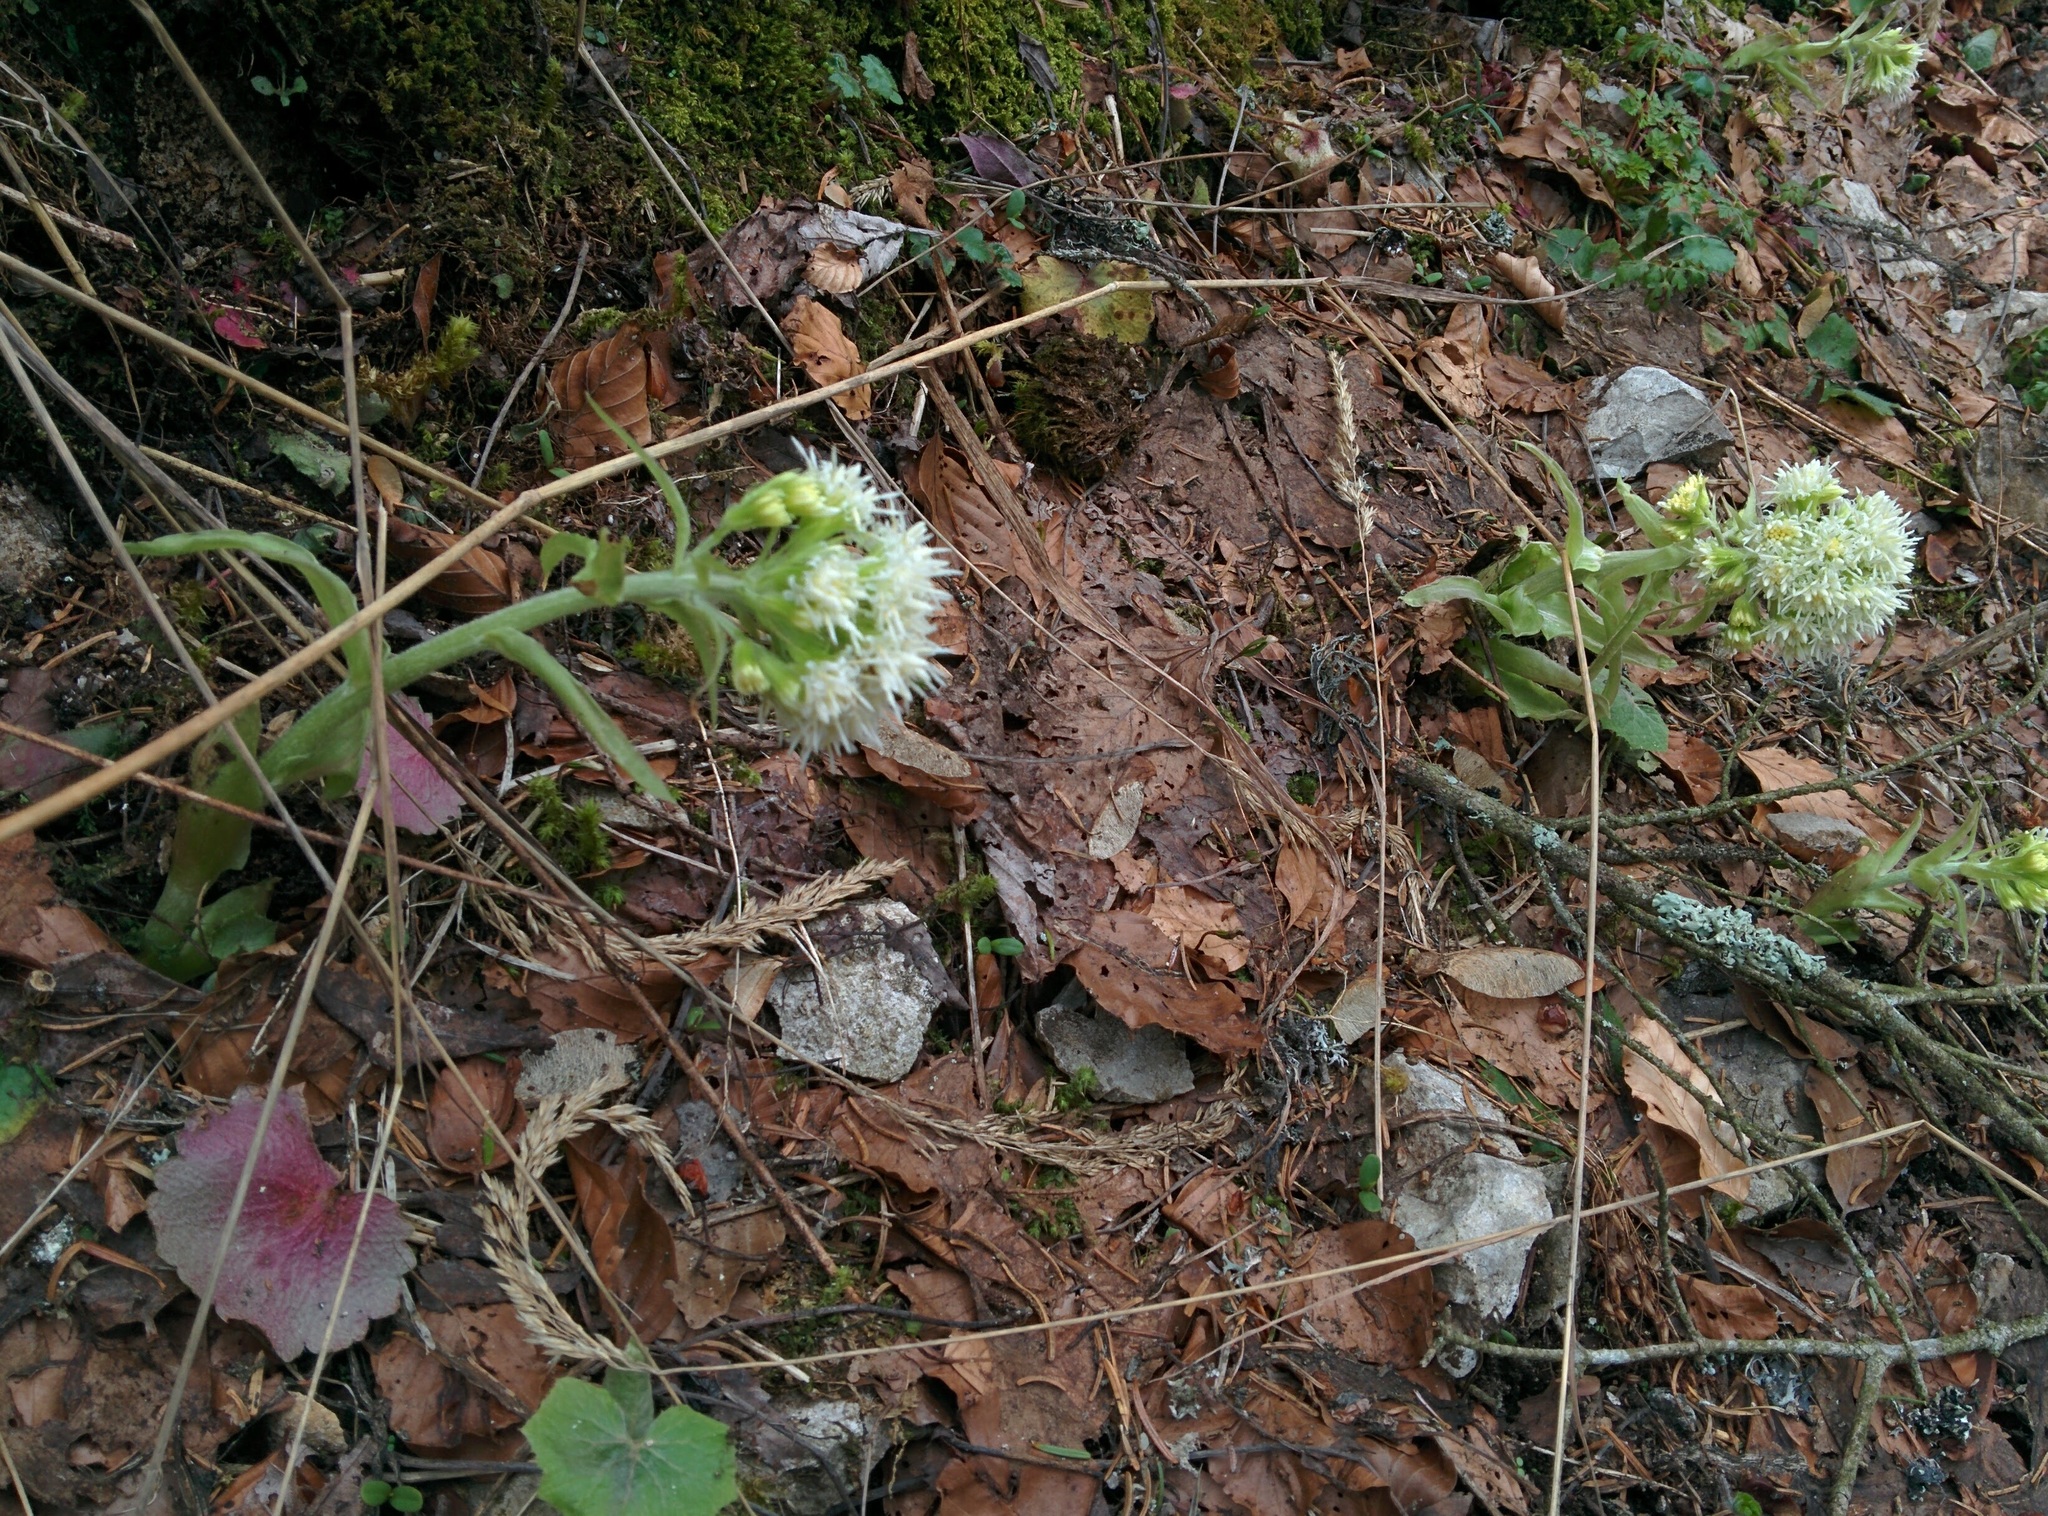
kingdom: Plantae
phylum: Tracheophyta
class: Magnoliopsida
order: Asterales
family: Asteraceae
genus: Petasites
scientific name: Petasites albus
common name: White butterbur
